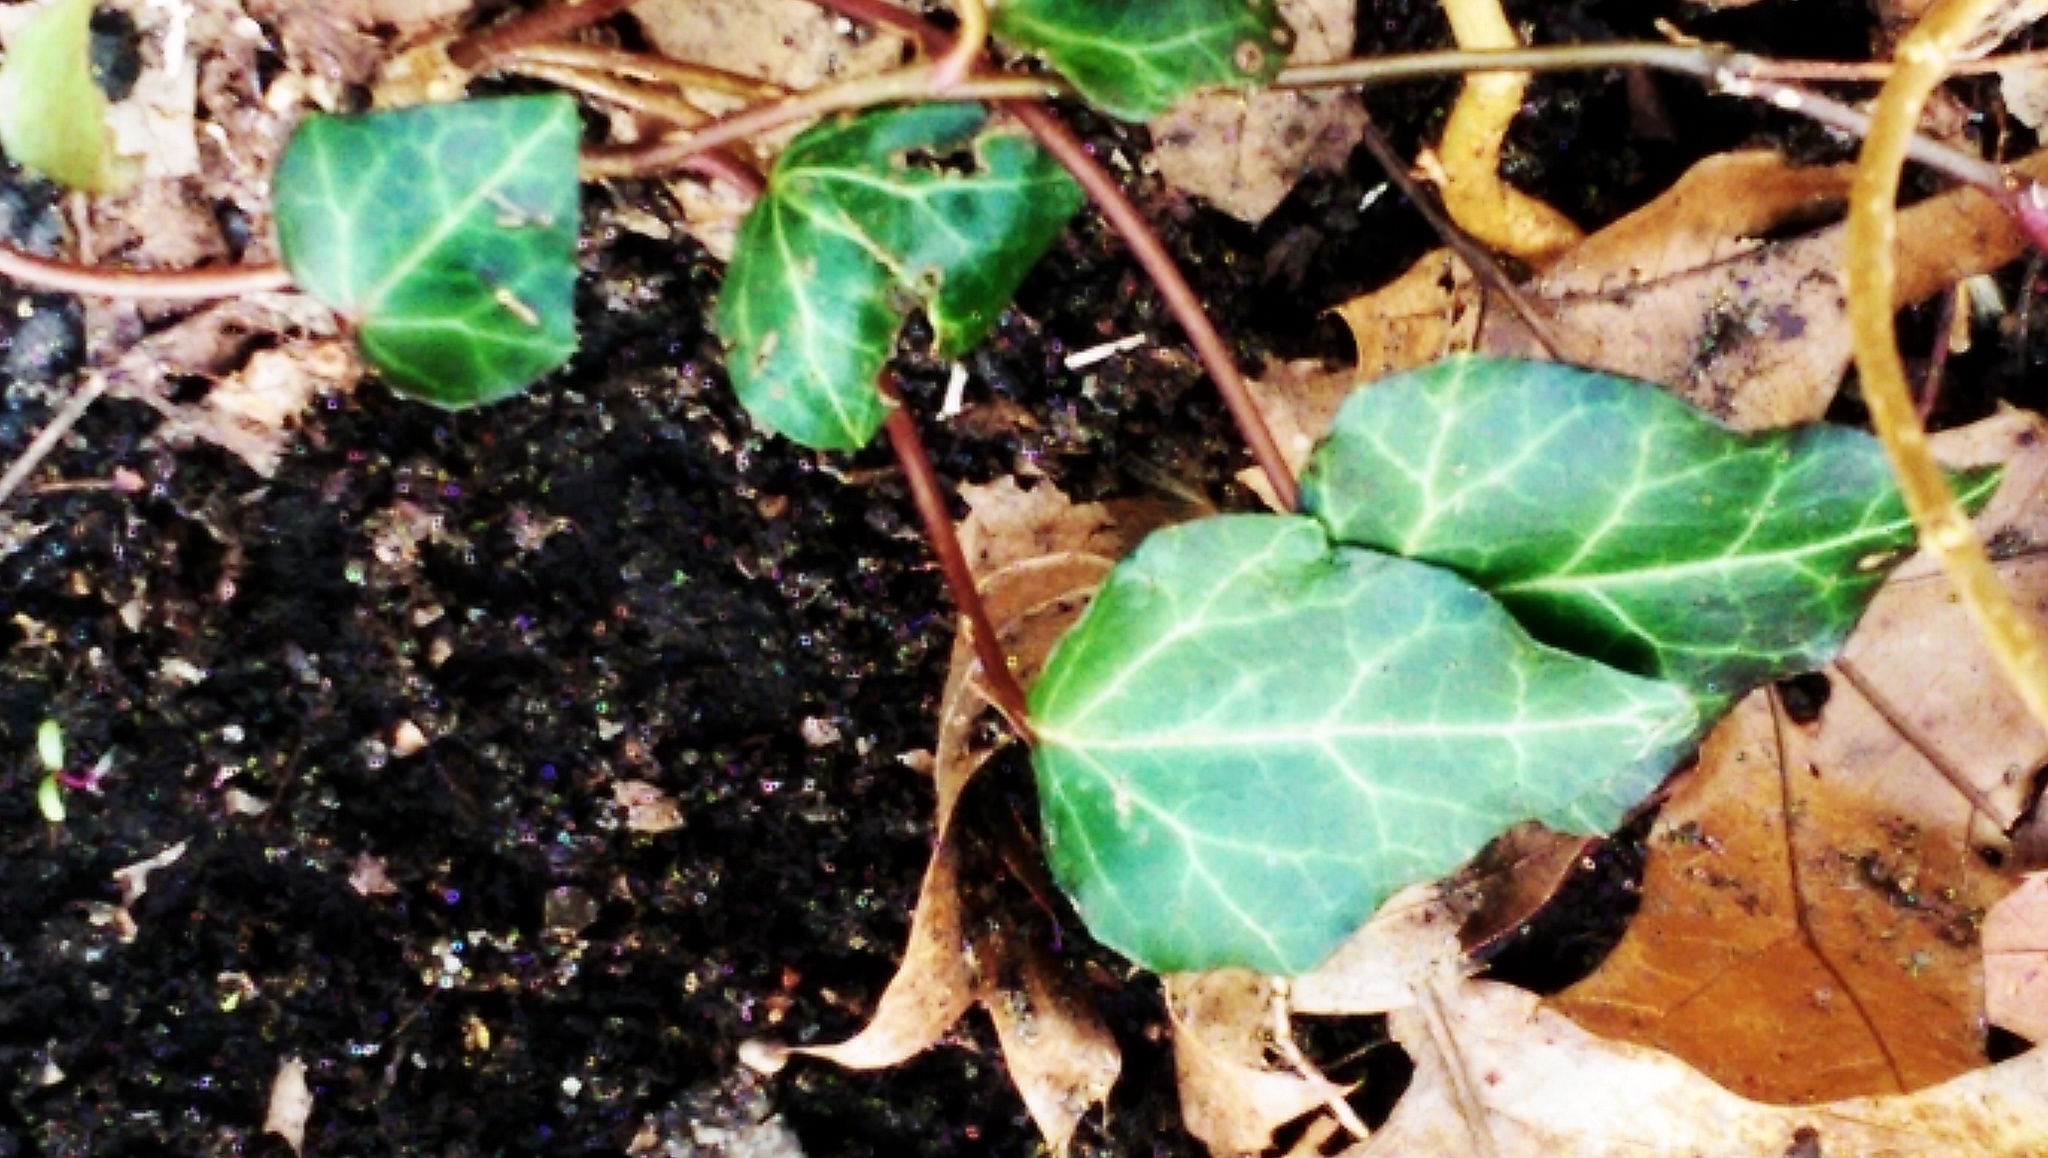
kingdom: Plantae
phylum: Tracheophyta
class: Magnoliopsida
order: Apiales
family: Araliaceae
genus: Hedera
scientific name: Hedera helix
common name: Ivy
